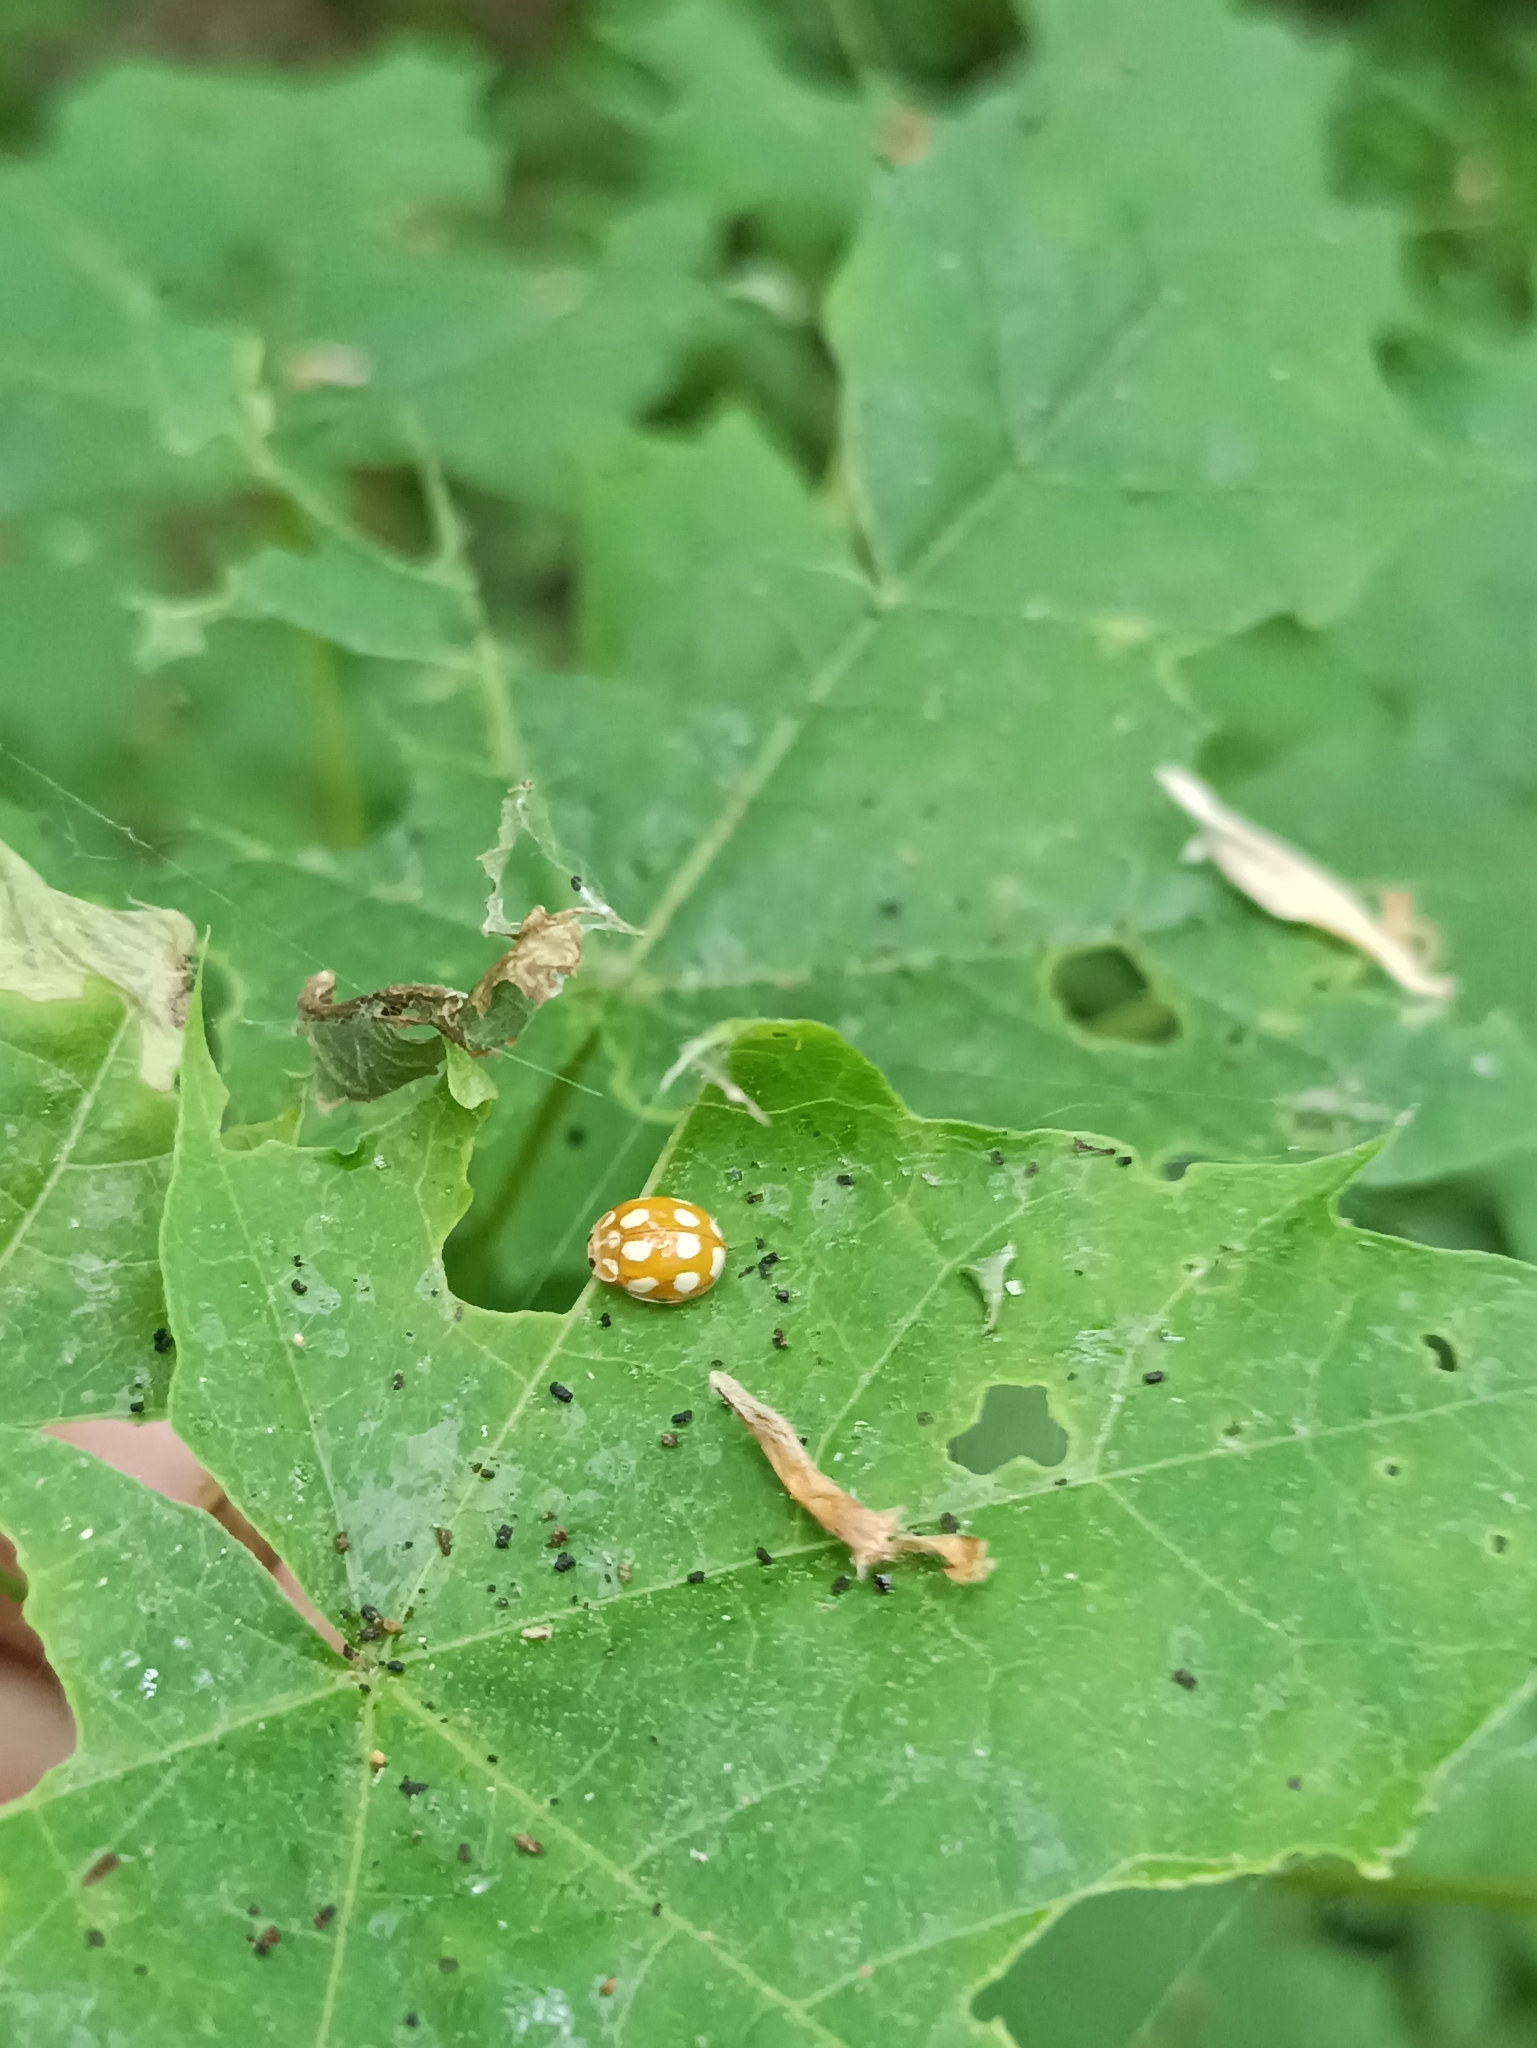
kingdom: Animalia
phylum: Arthropoda
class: Insecta
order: Coleoptera
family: Coccinellidae
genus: Calvia
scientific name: Calvia decemguttata
